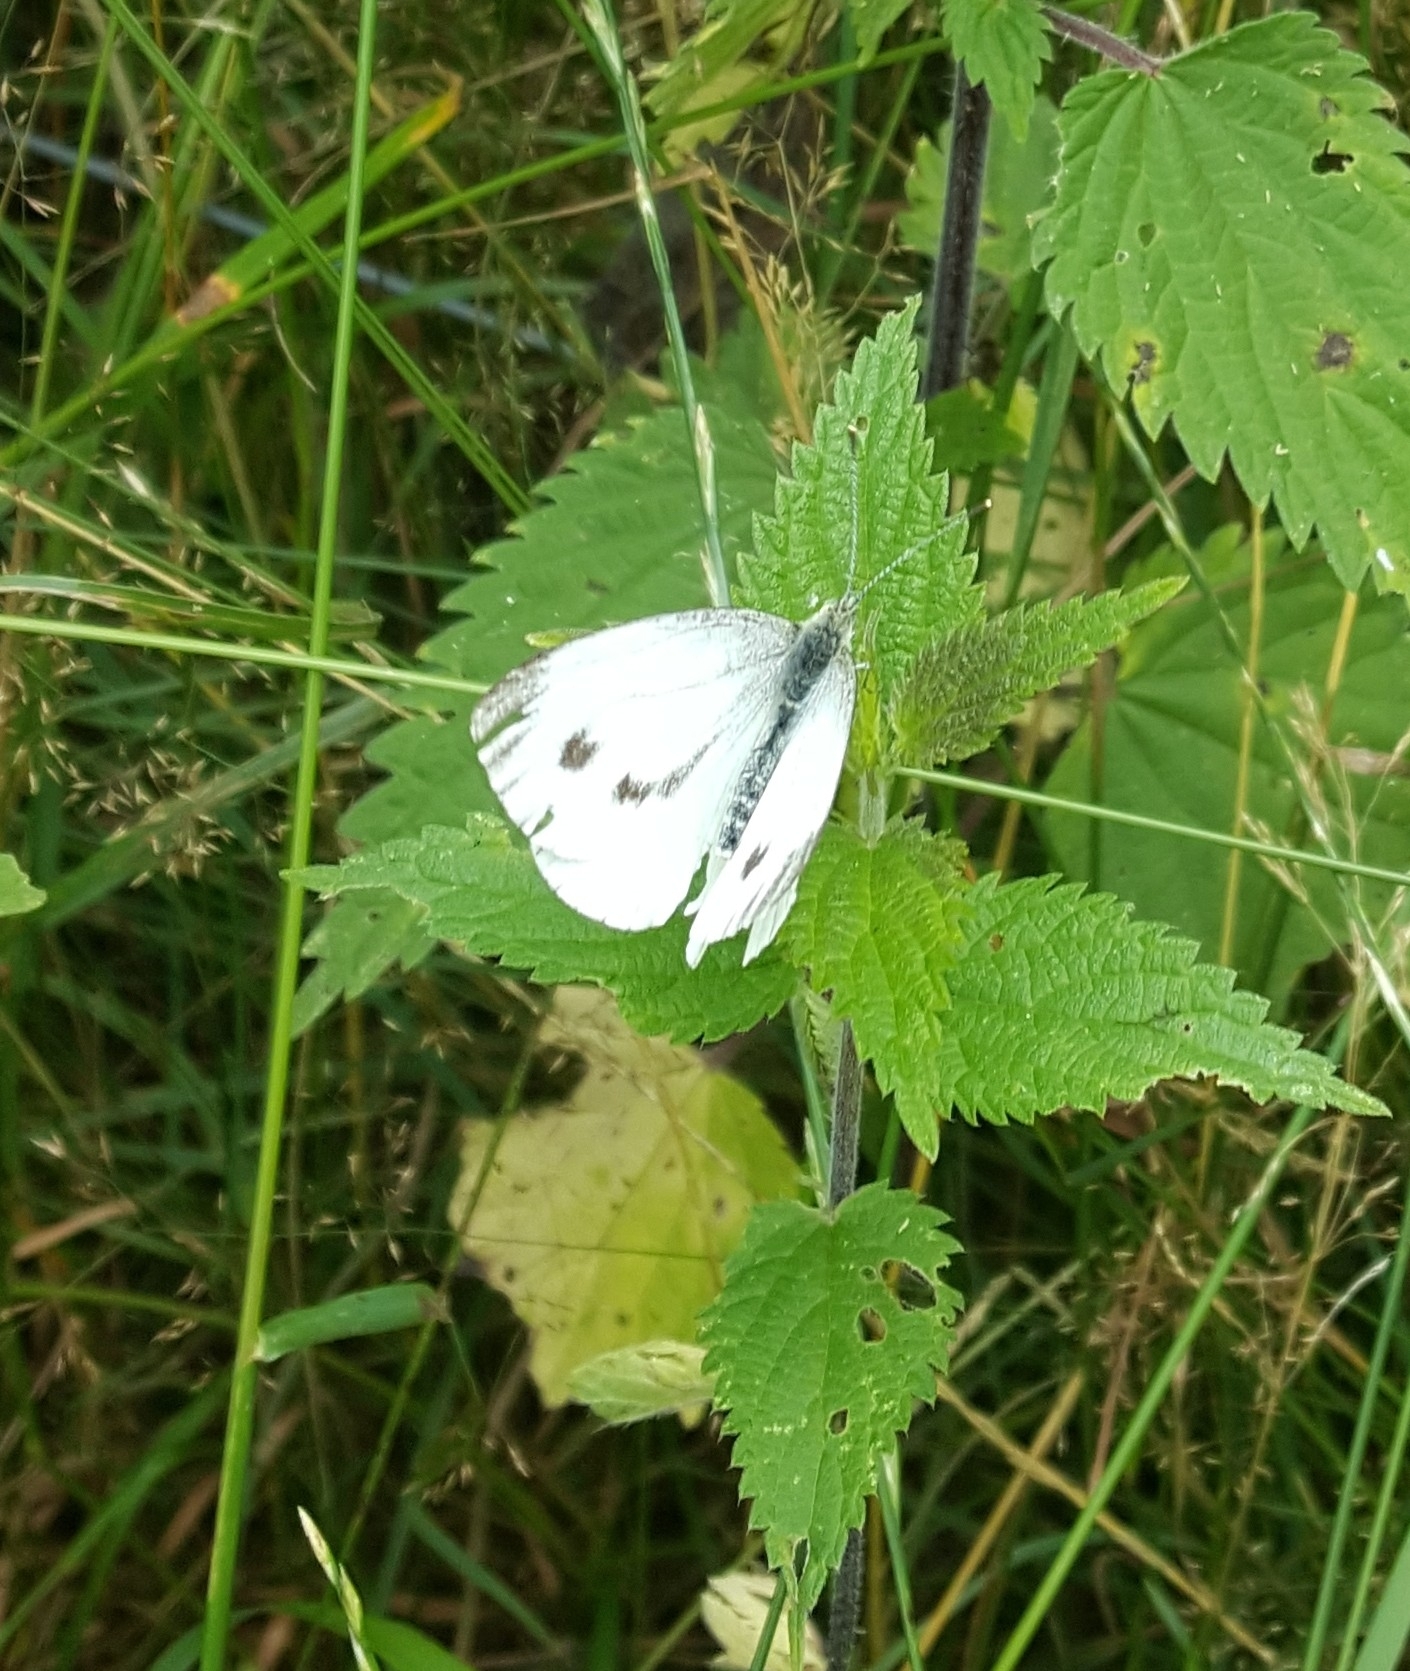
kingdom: Animalia
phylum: Arthropoda
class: Insecta
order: Lepidoptera
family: Pieridae
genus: Pieris
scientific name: Pieris napi
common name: Green-veined white
